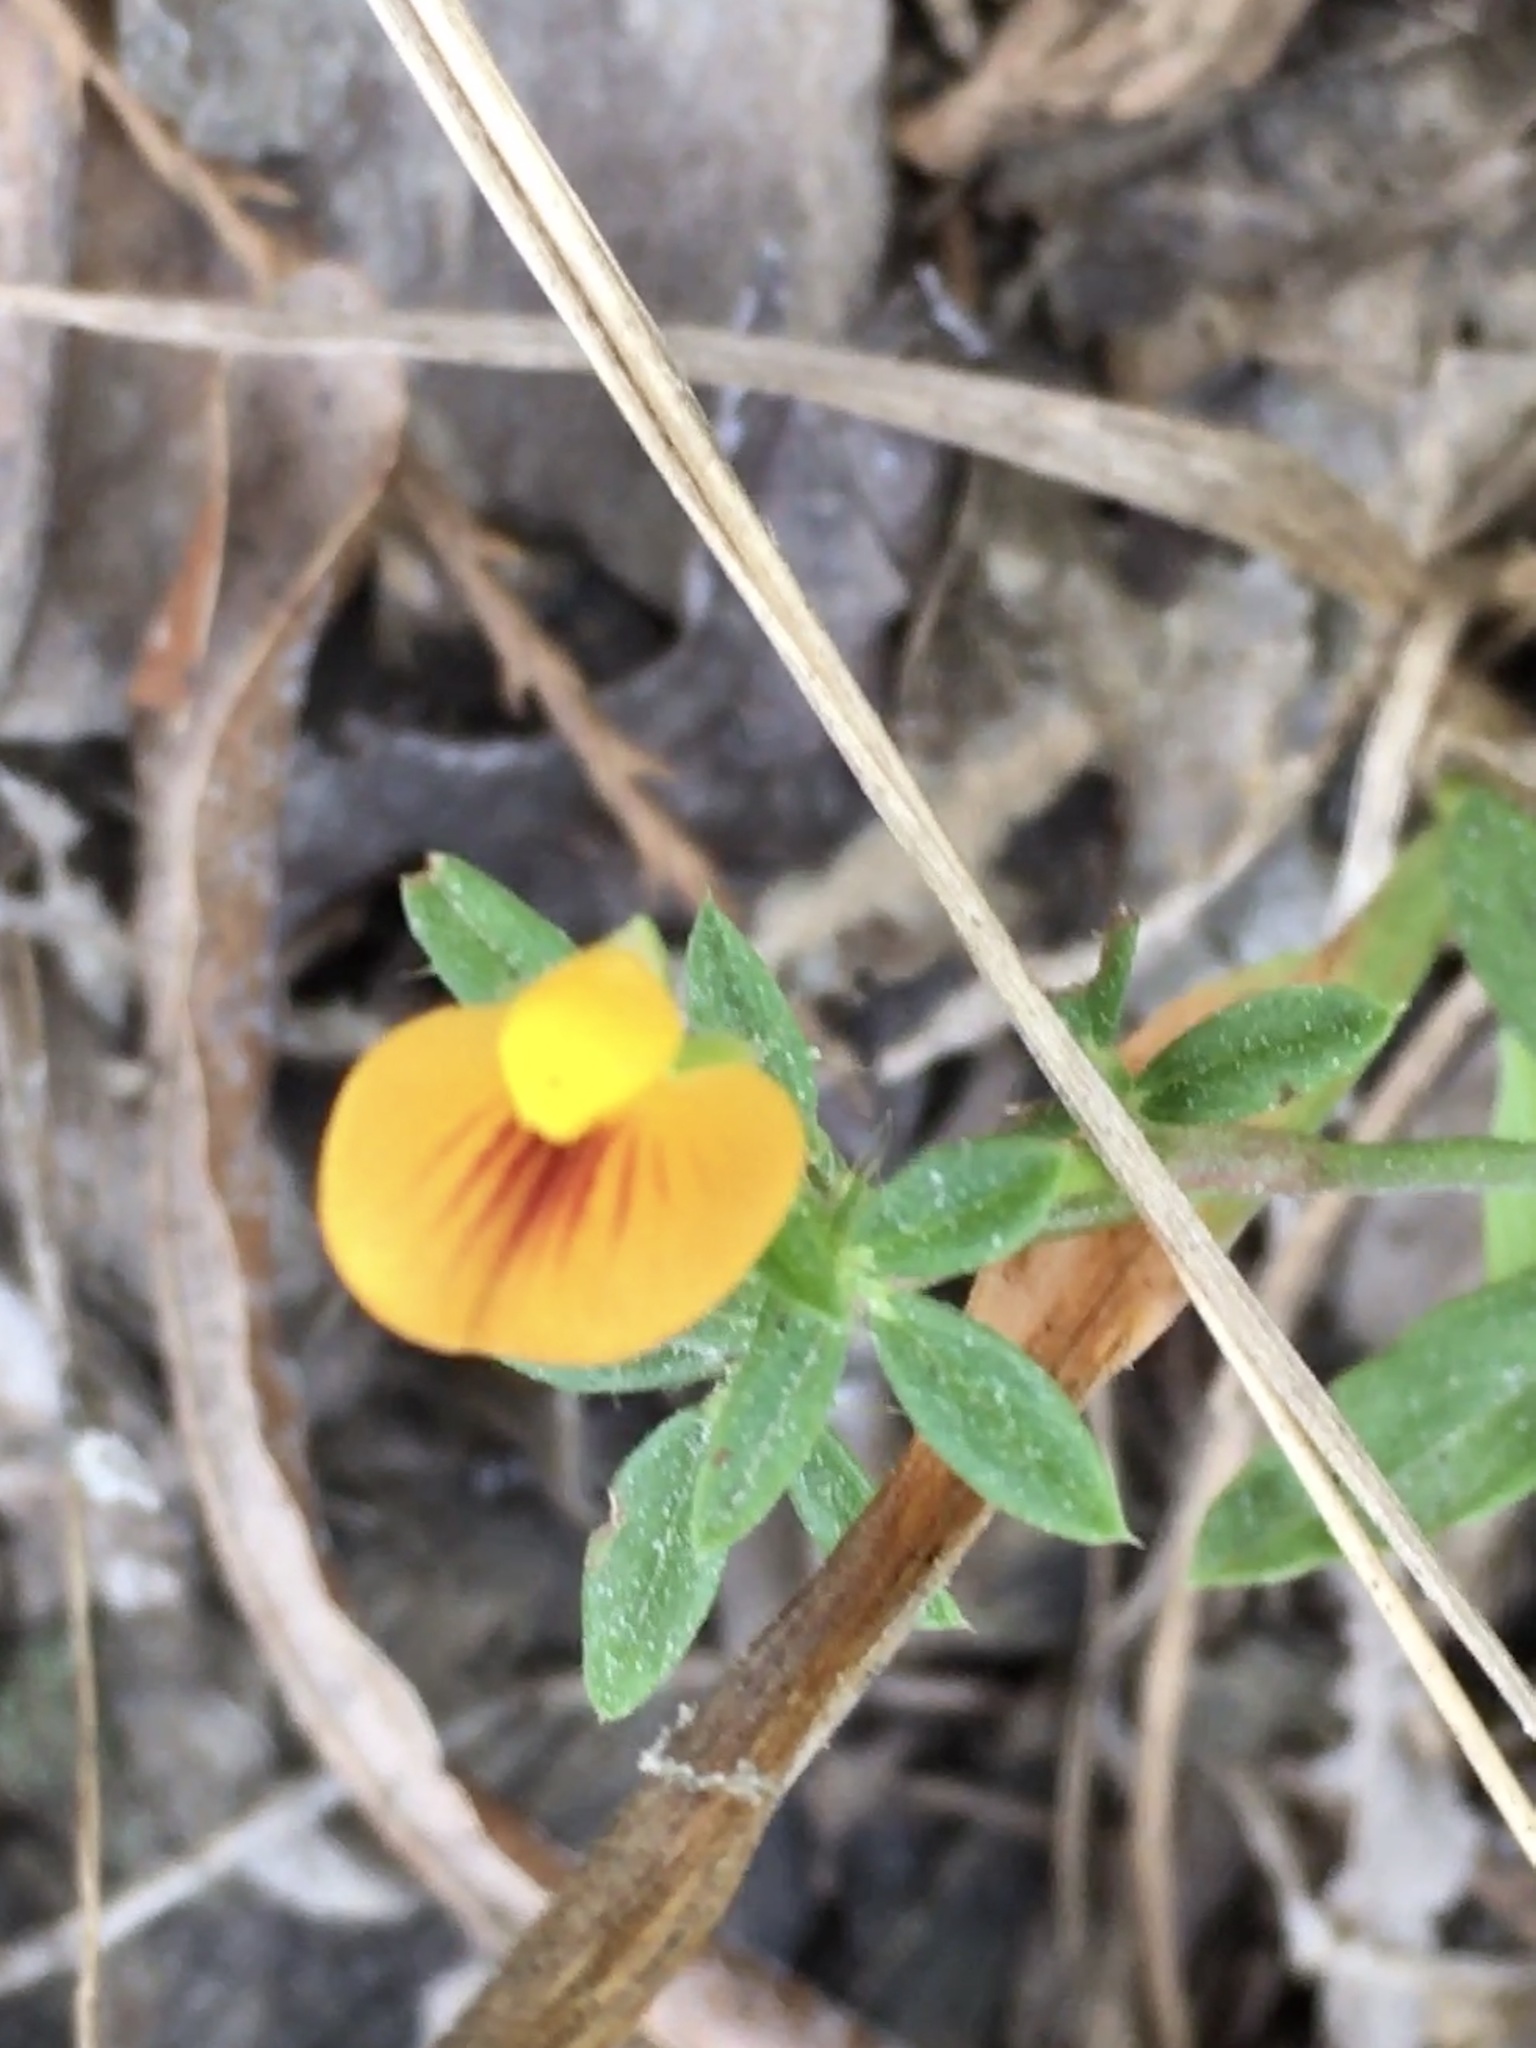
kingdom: Plantae
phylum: Tracheophyta
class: Magnoliopsida
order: Fabales
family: Fabaceae
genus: Stylosanthes
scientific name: Stylosanthes biflora
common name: Two-flower pencil-flower
